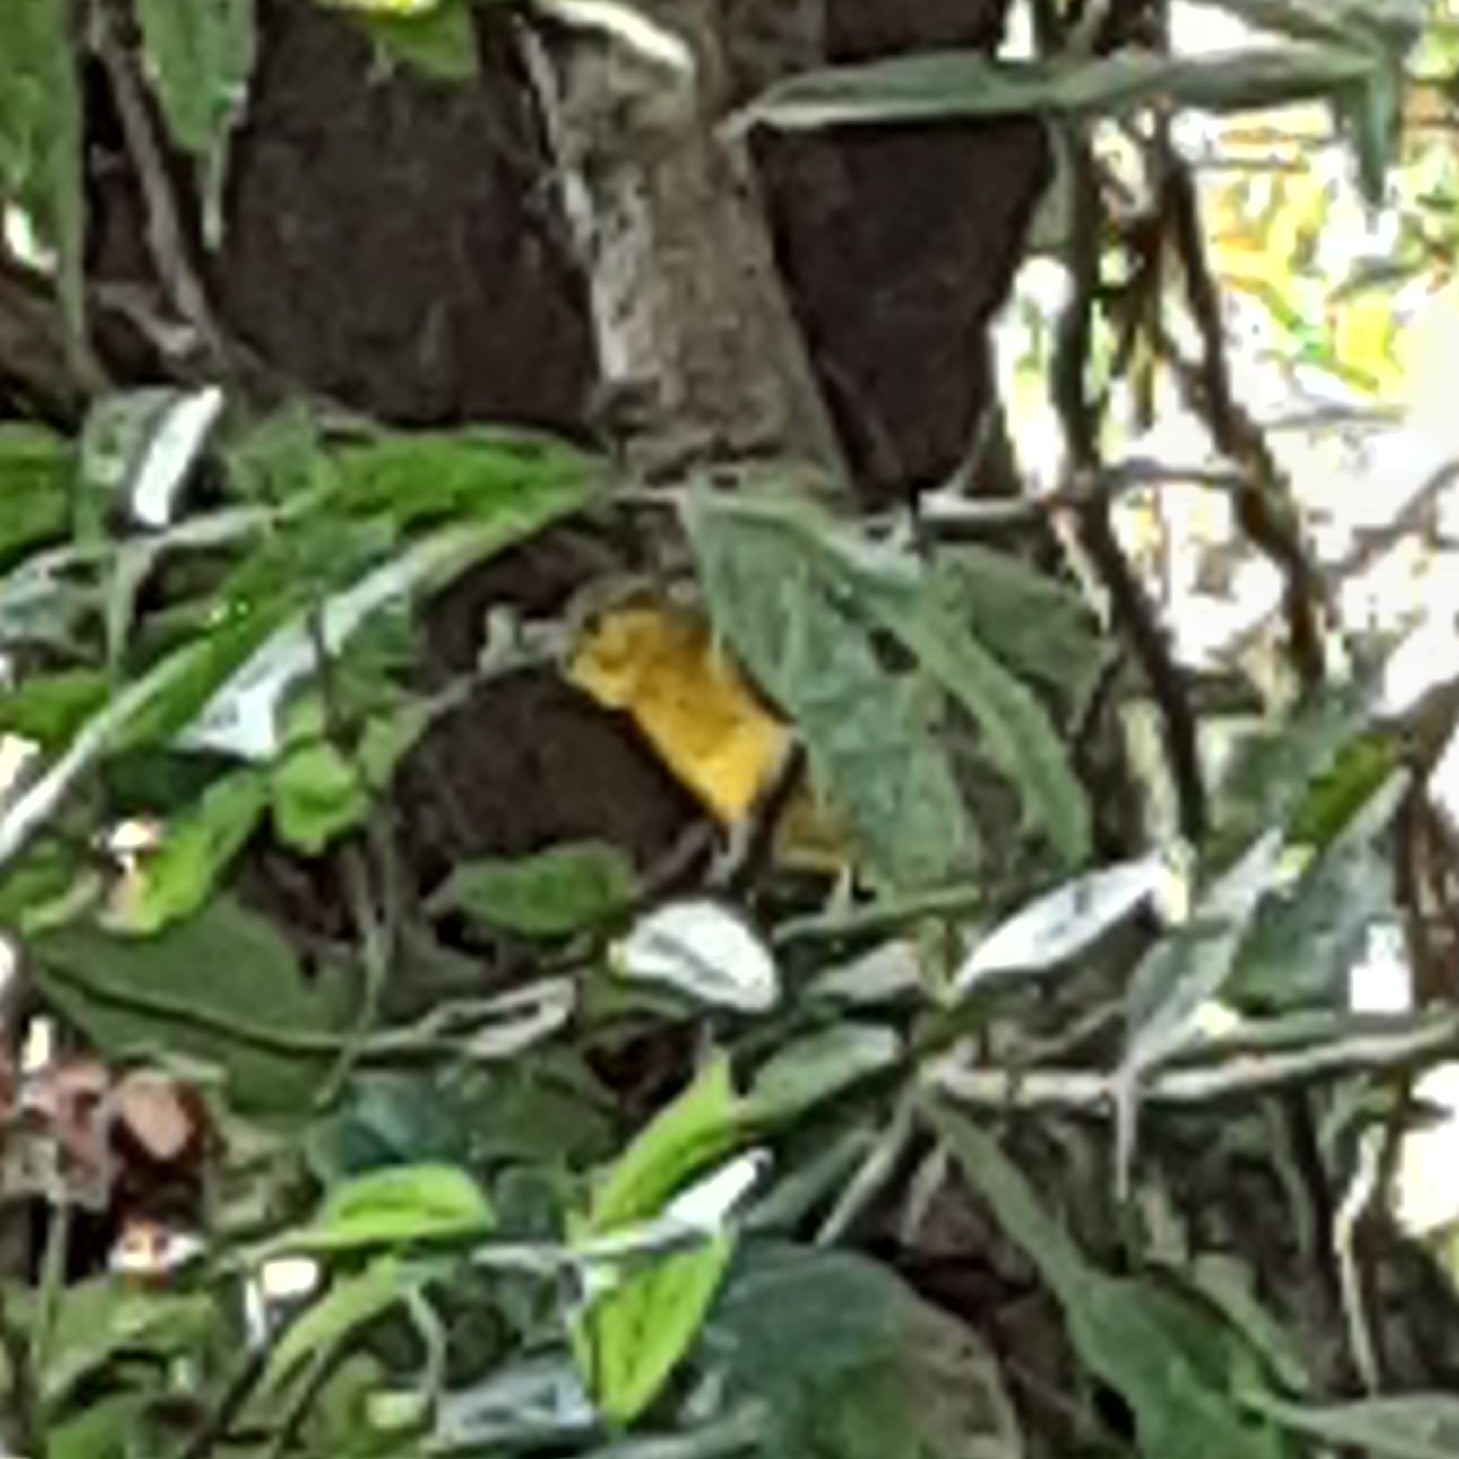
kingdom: Animalia
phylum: Chordata
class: Aves
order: Passeriformes
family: Pycnonotidae
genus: Acritillas
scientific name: Acritillas indica
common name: Yellow-browed bulbul
